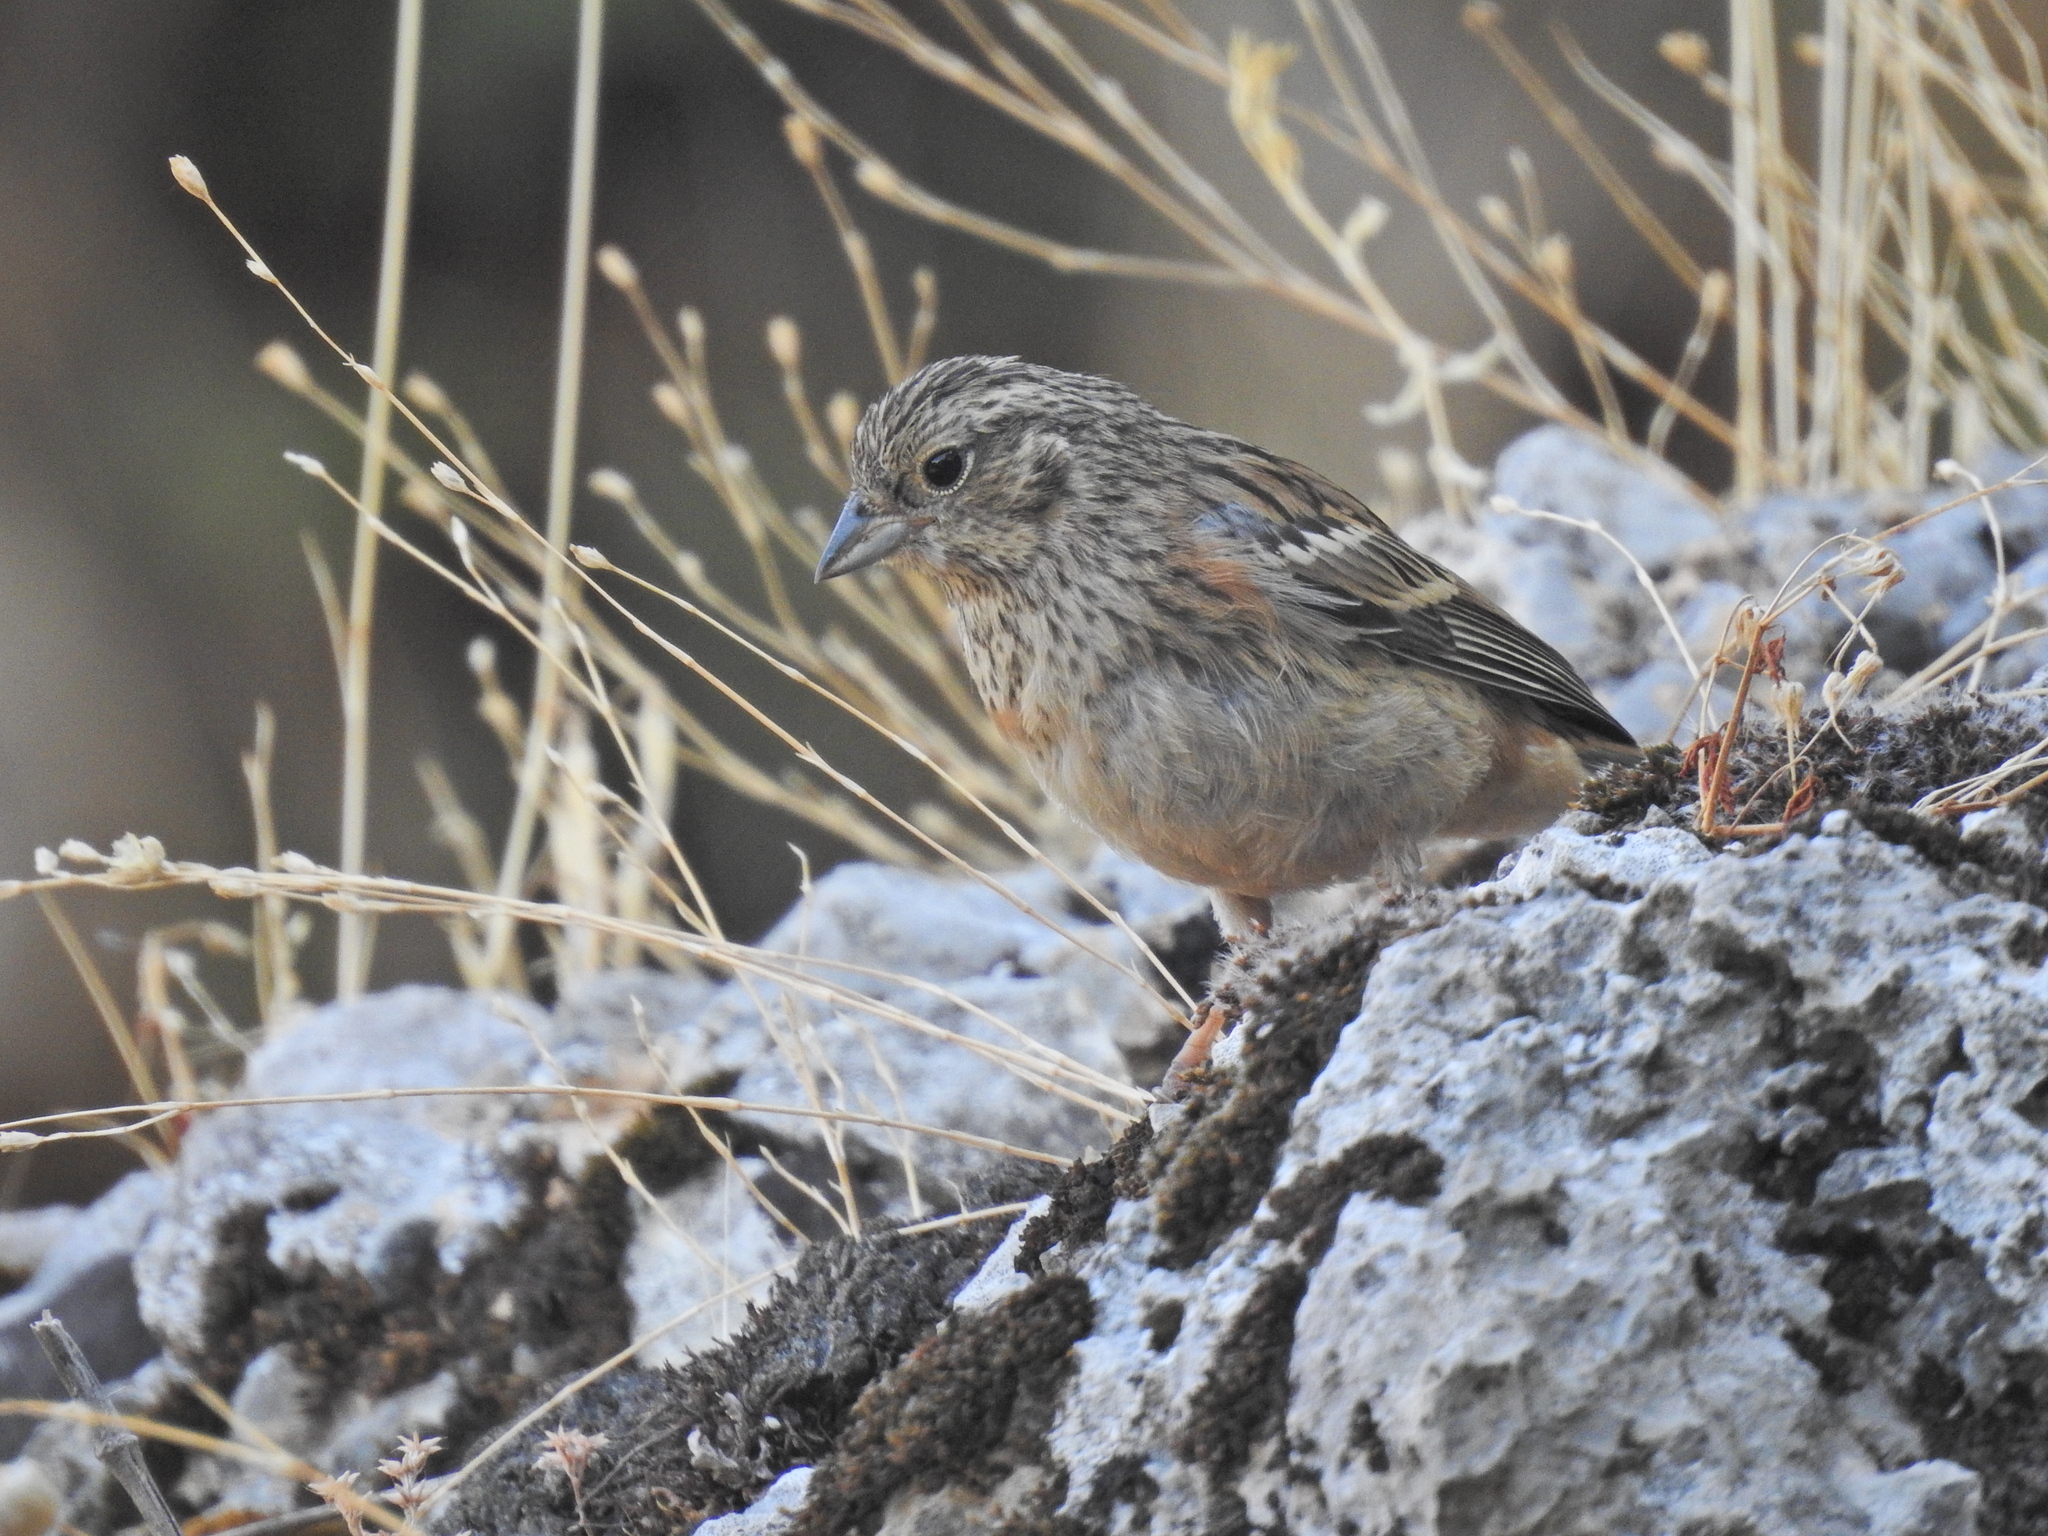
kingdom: Animalia
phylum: Chordata
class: Aves
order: Passeriformes
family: Emberizidae
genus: Emberiza
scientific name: Emberiza cirlus
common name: Cirl bunting
